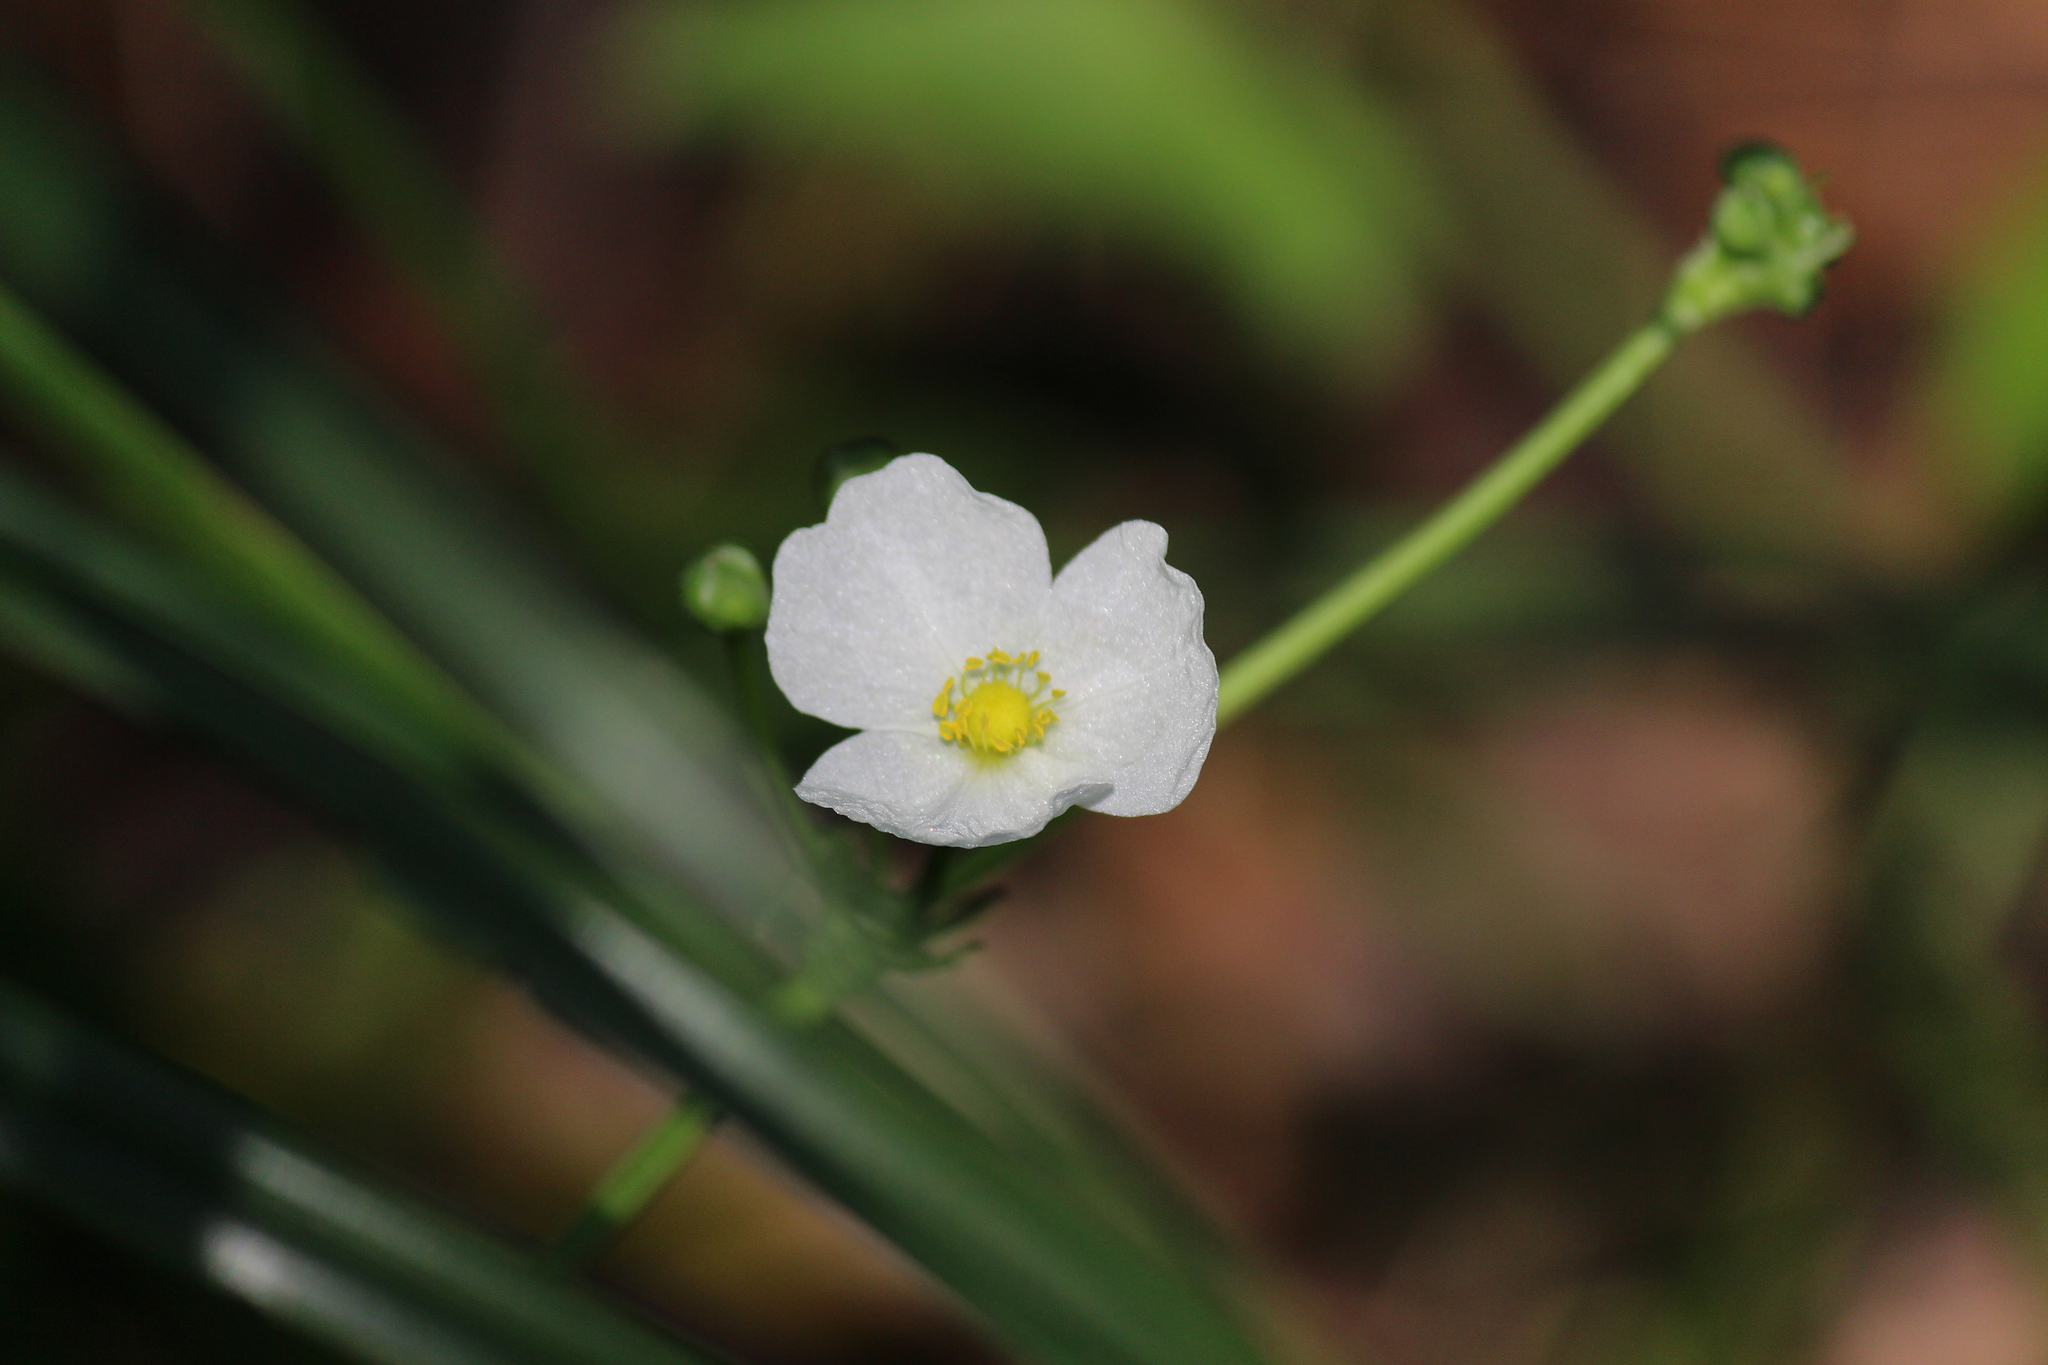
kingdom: Plantae
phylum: Tracheophyta
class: Liliopsida
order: Alismatales
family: Alismataceae
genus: Aquarius
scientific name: Aquarius cordifolius
